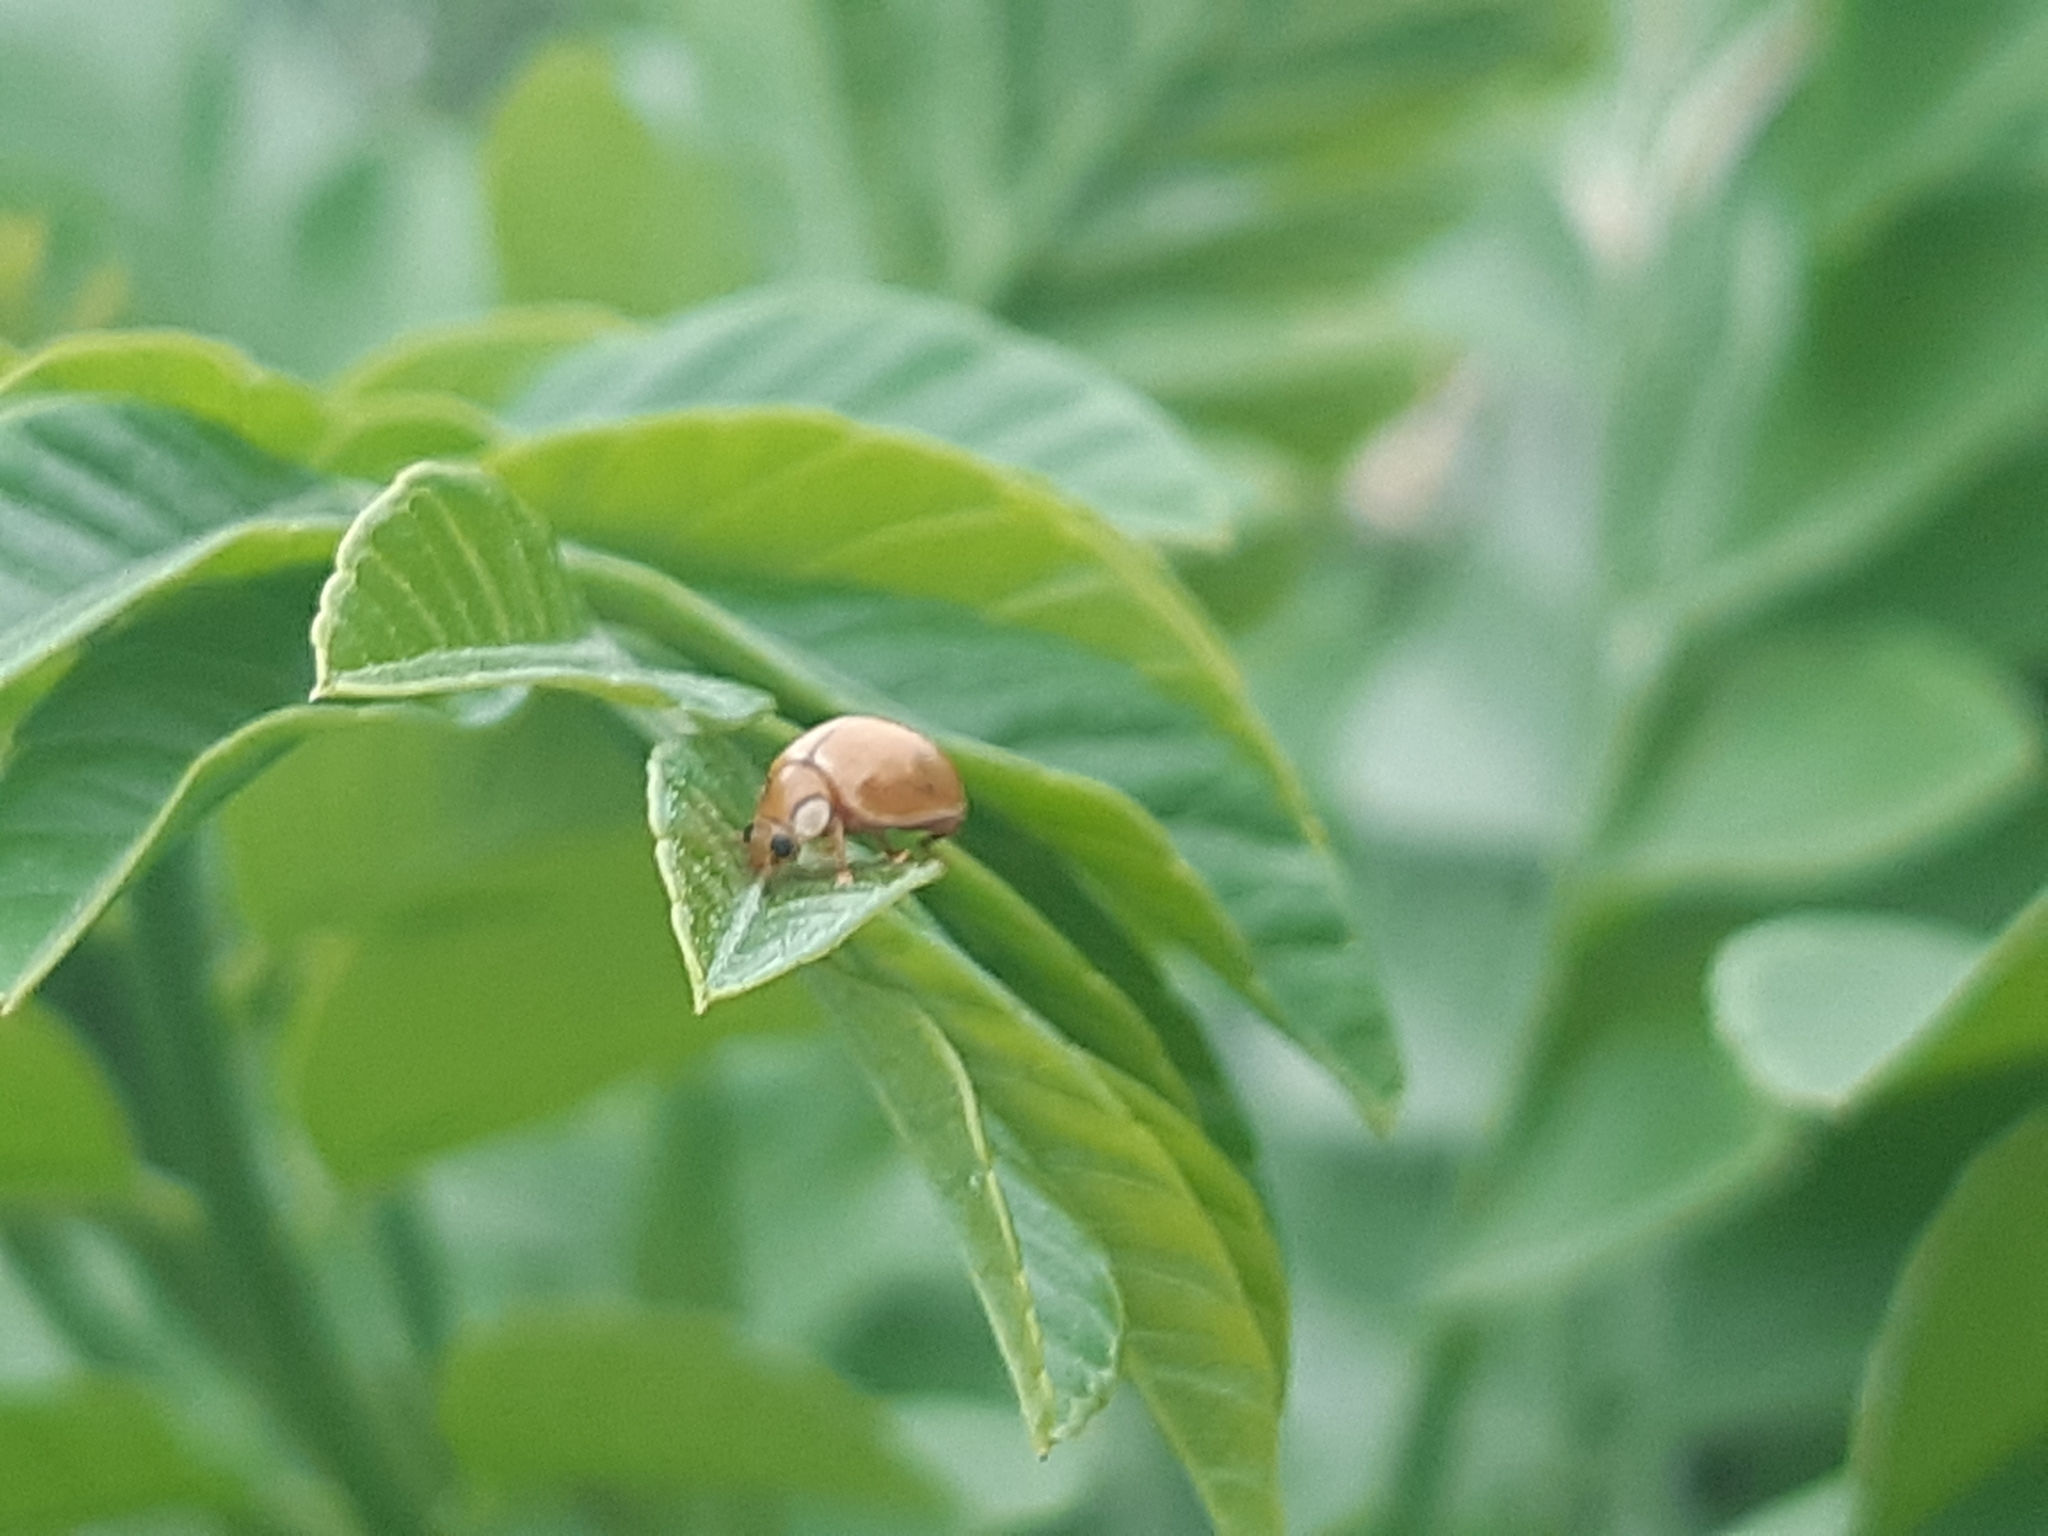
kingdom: Animalia
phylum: Arthropoda
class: Insecta
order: Coleoptera
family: Coccinellidae
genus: Paraneda
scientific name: Paraneda pallidula
